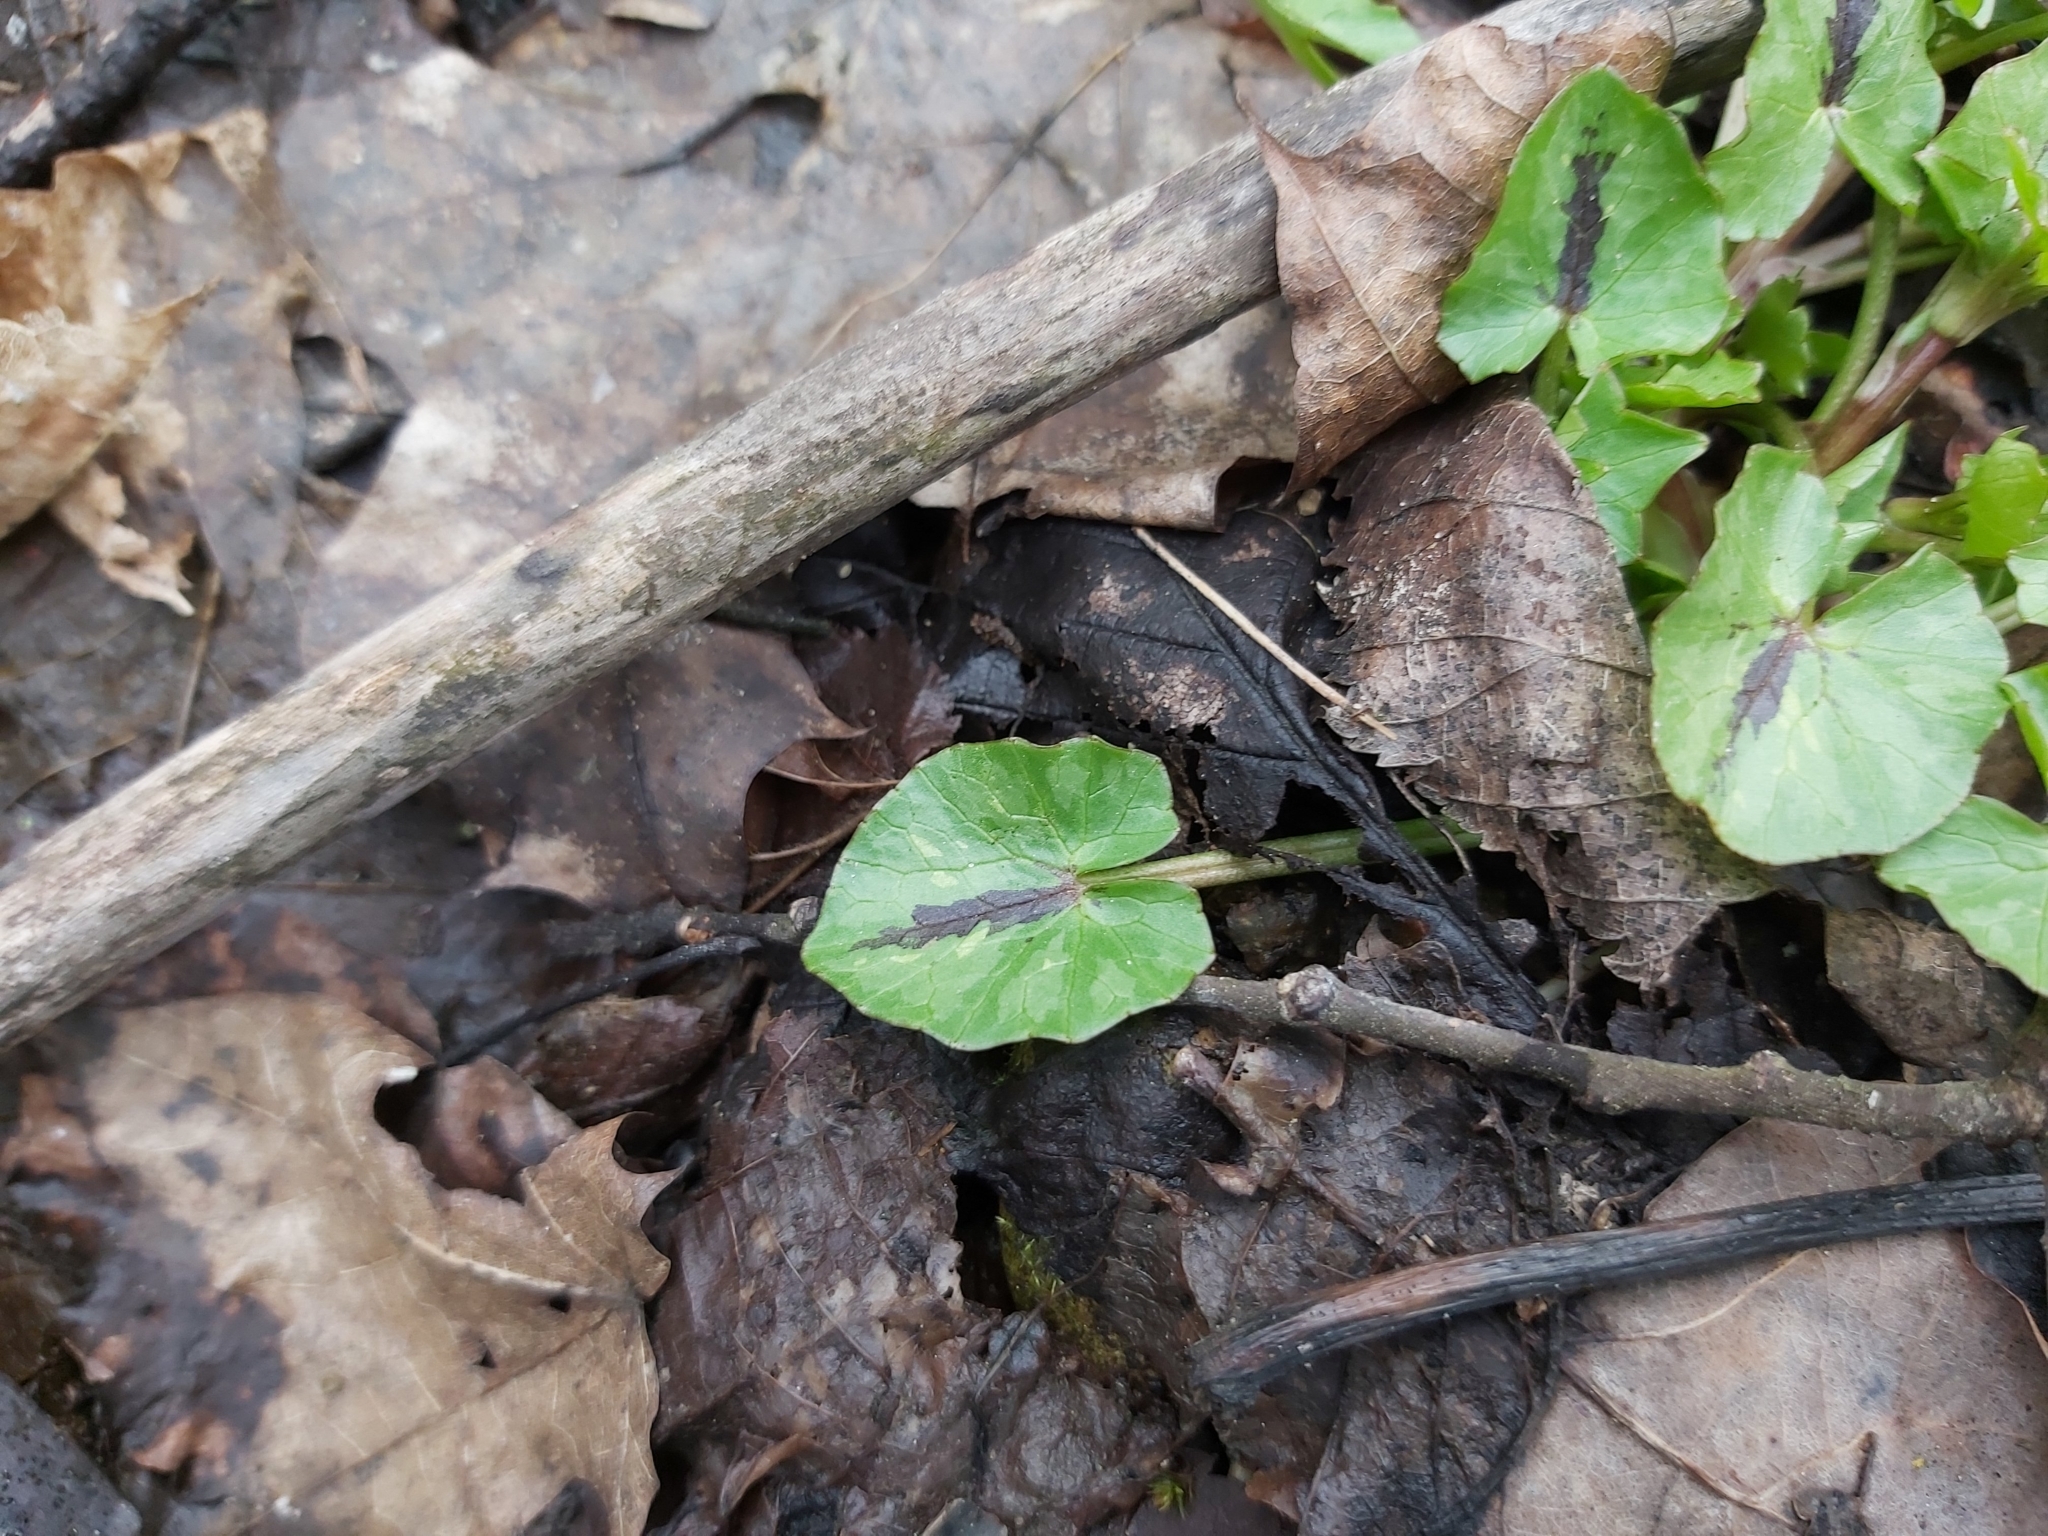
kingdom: Plantae
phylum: Tracheophyta
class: Magnoliopsida
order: Ranunculales
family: Ranunculaceae
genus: Ficaria
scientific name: Ficaria verna
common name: Lesser celandine
